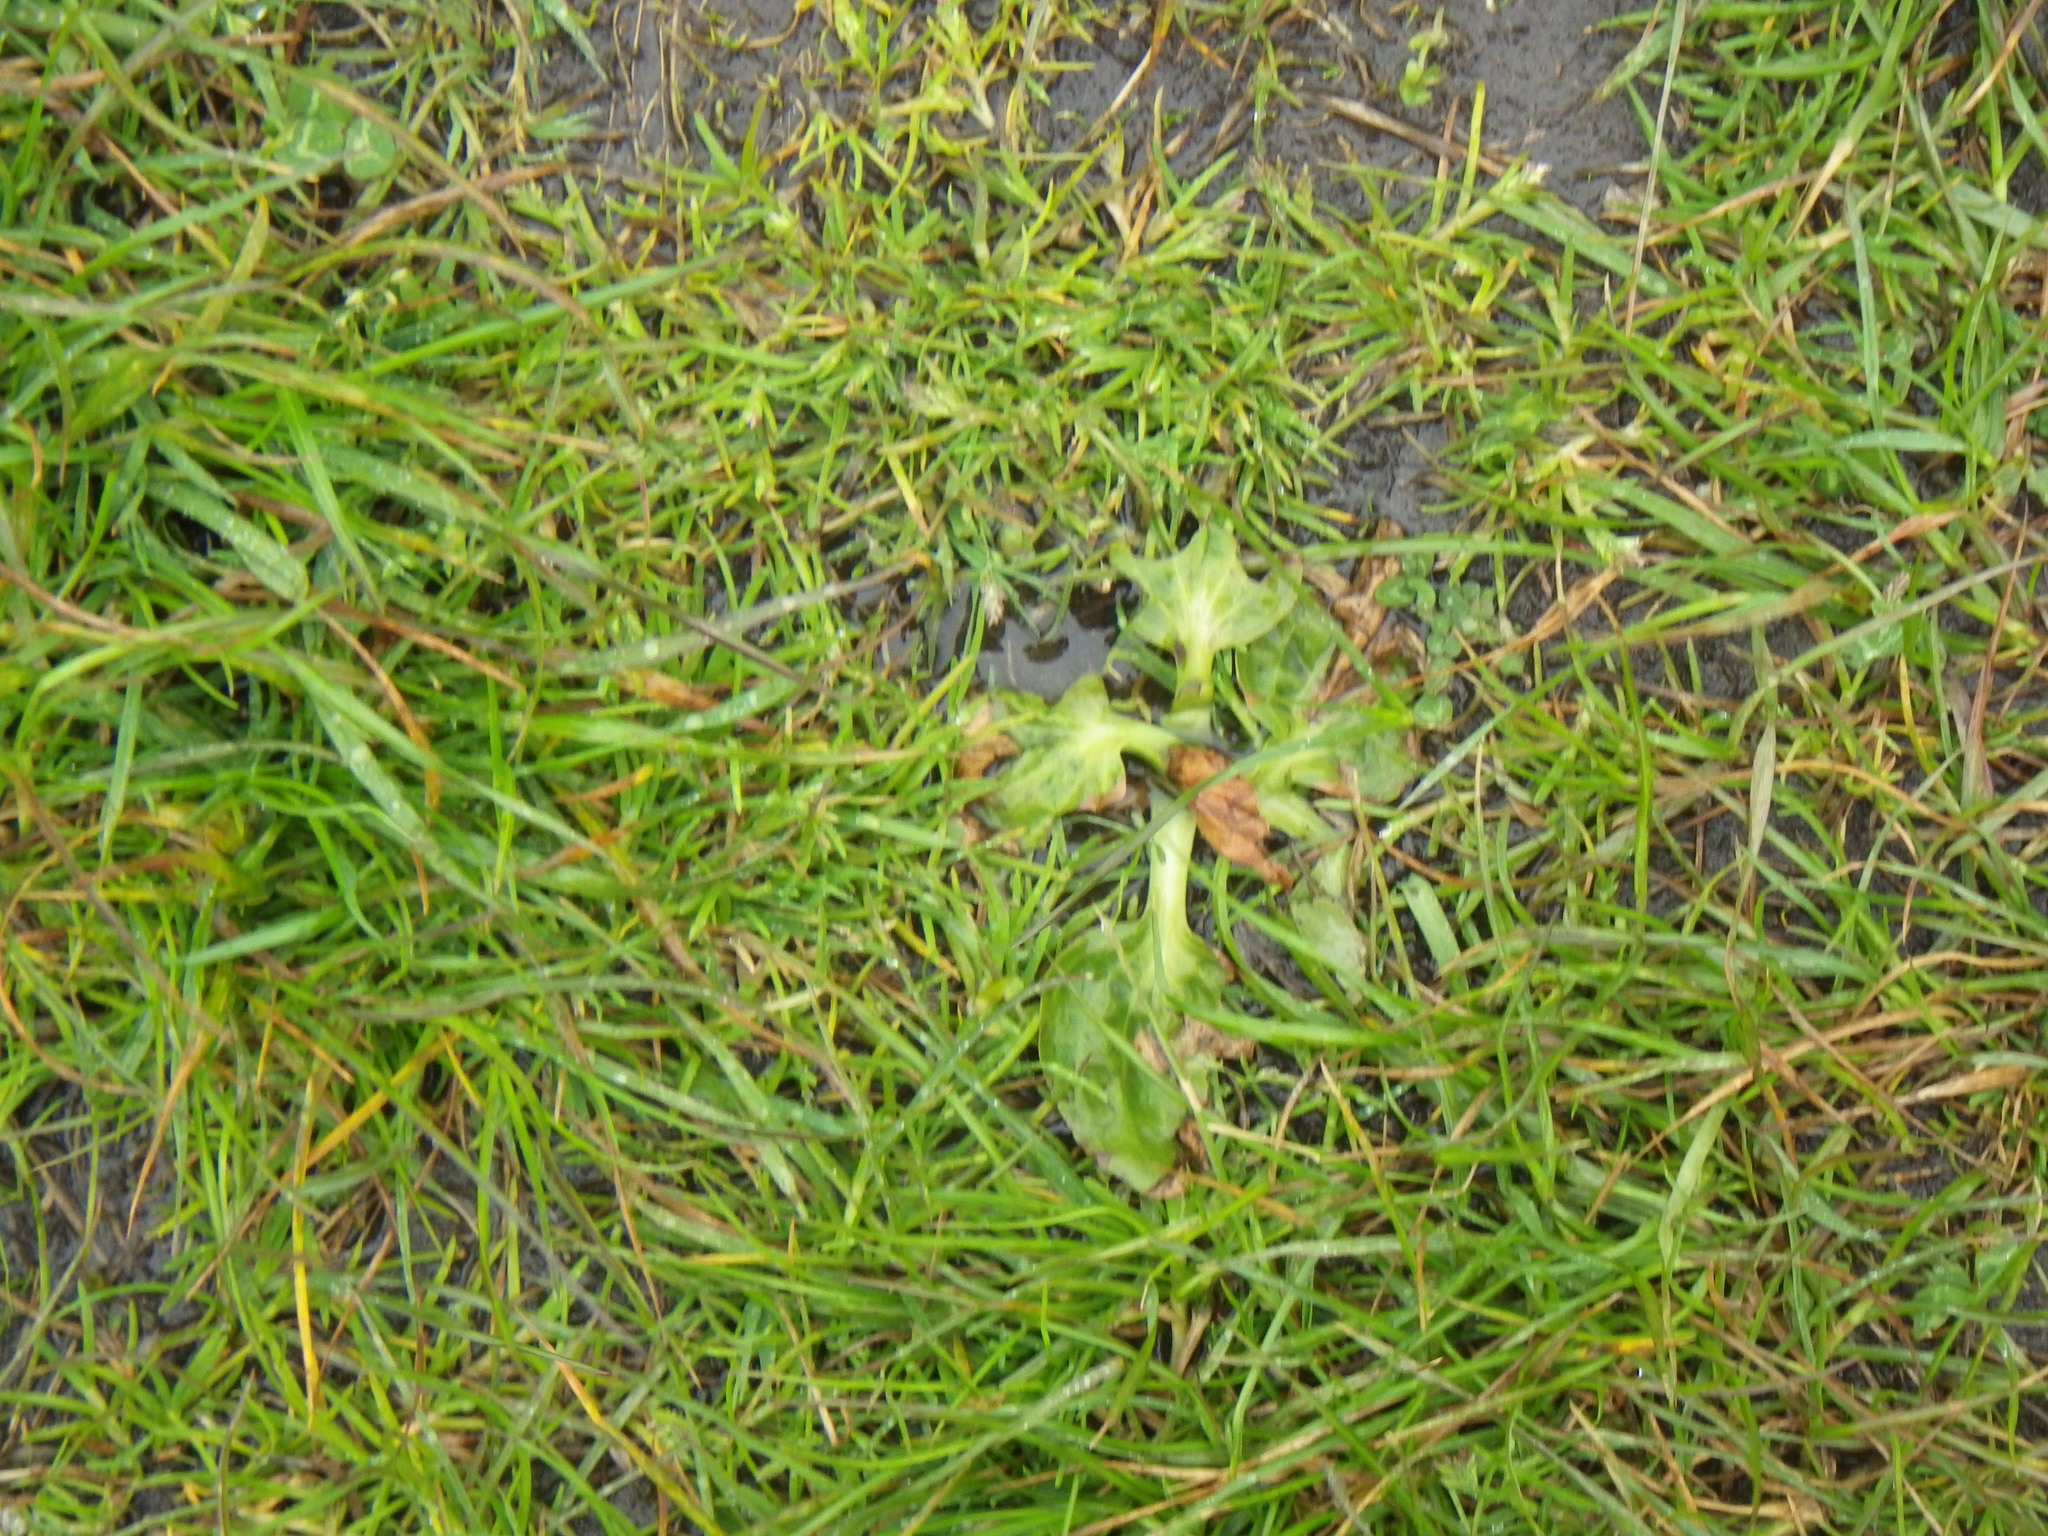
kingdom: Plantae
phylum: Tracheophyta
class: Magnoliopsida
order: Lamiales
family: Plantaginaceae
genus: Plantago
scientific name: Plantago major
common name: Common plantain
